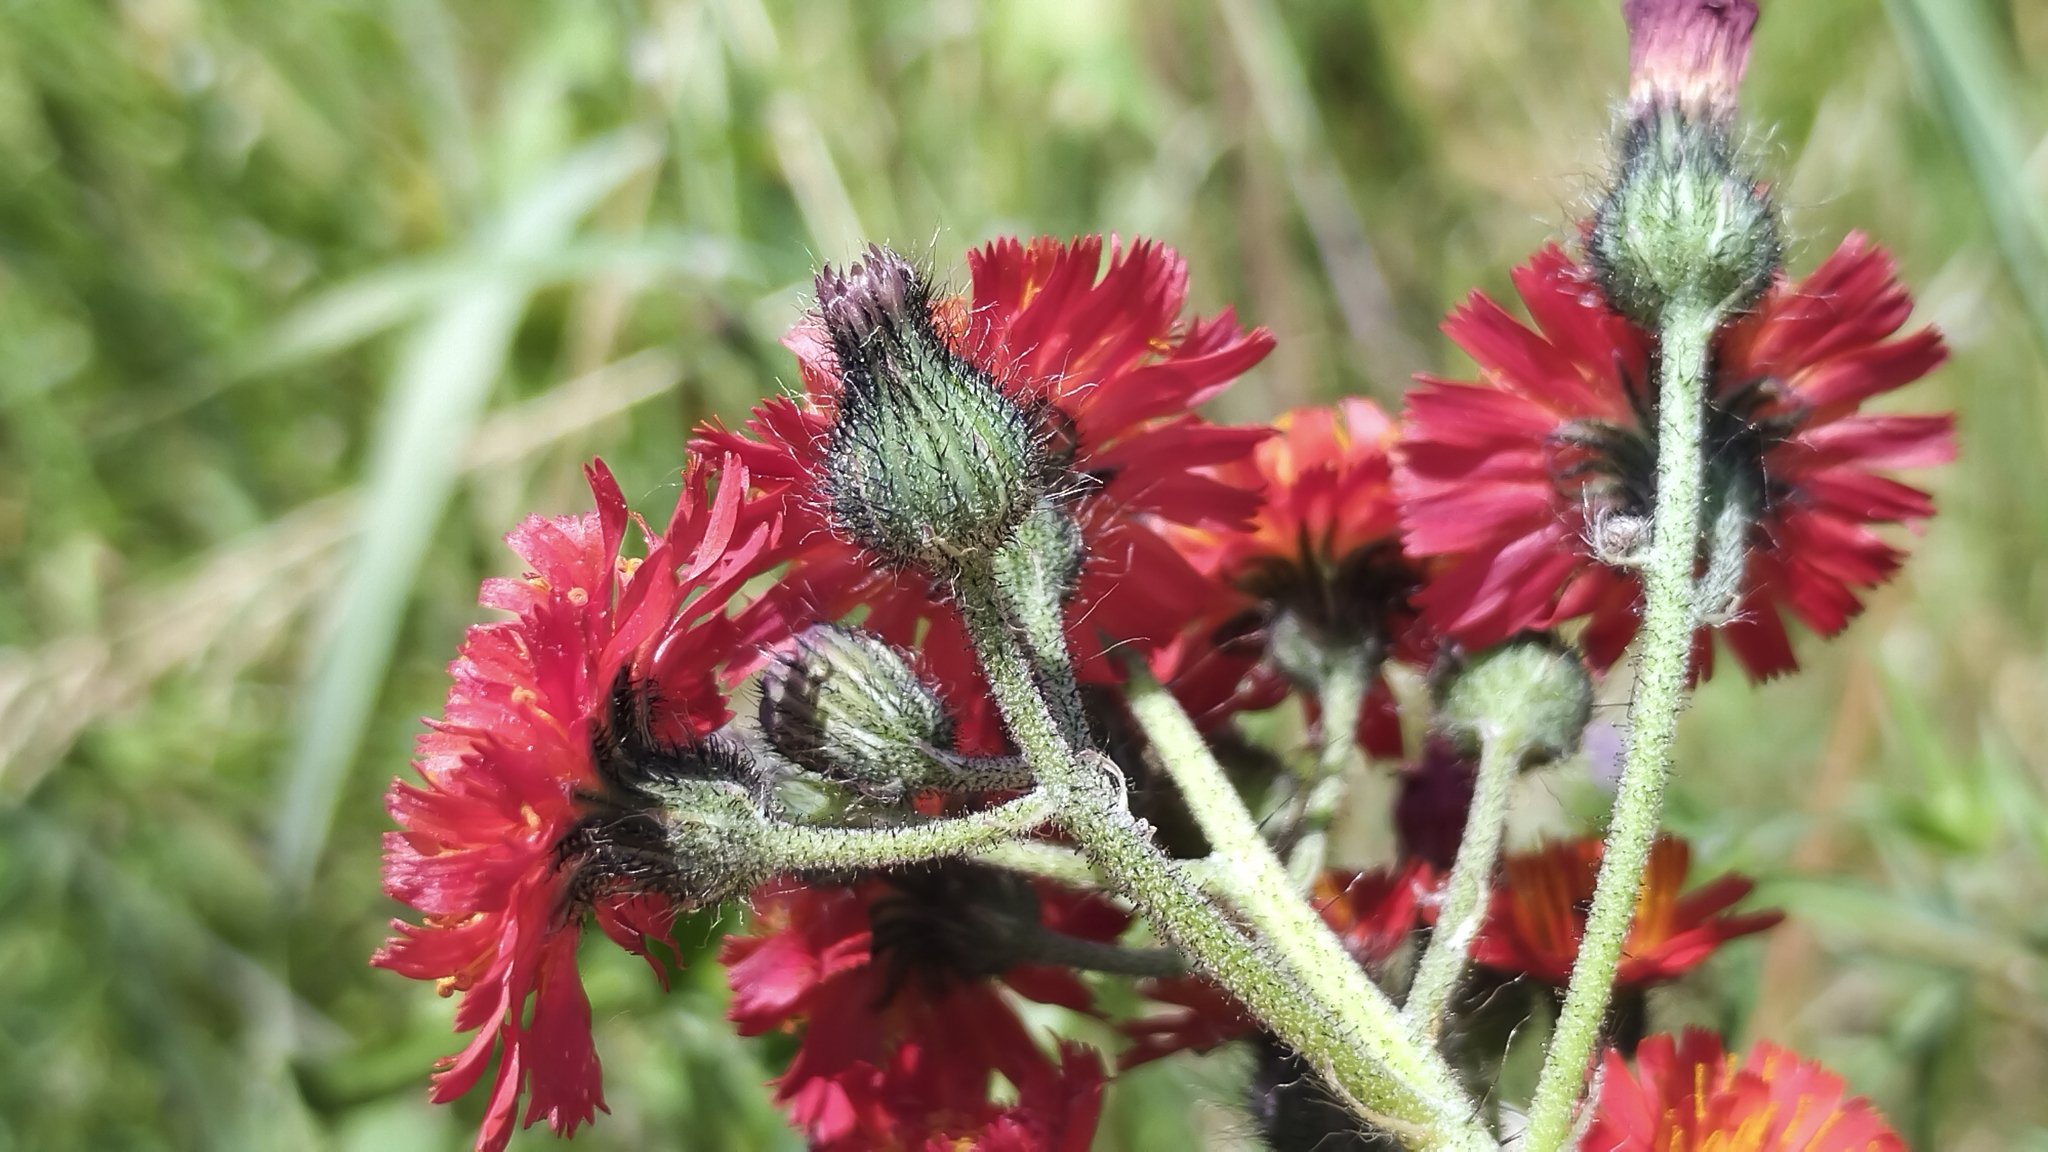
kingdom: Plantae
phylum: Tracheophyta
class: Magnoliopsida
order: Asterales
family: Asteraceae
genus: Pilosella
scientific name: Pilosella aurantiaca
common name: Fox-and-cubs
